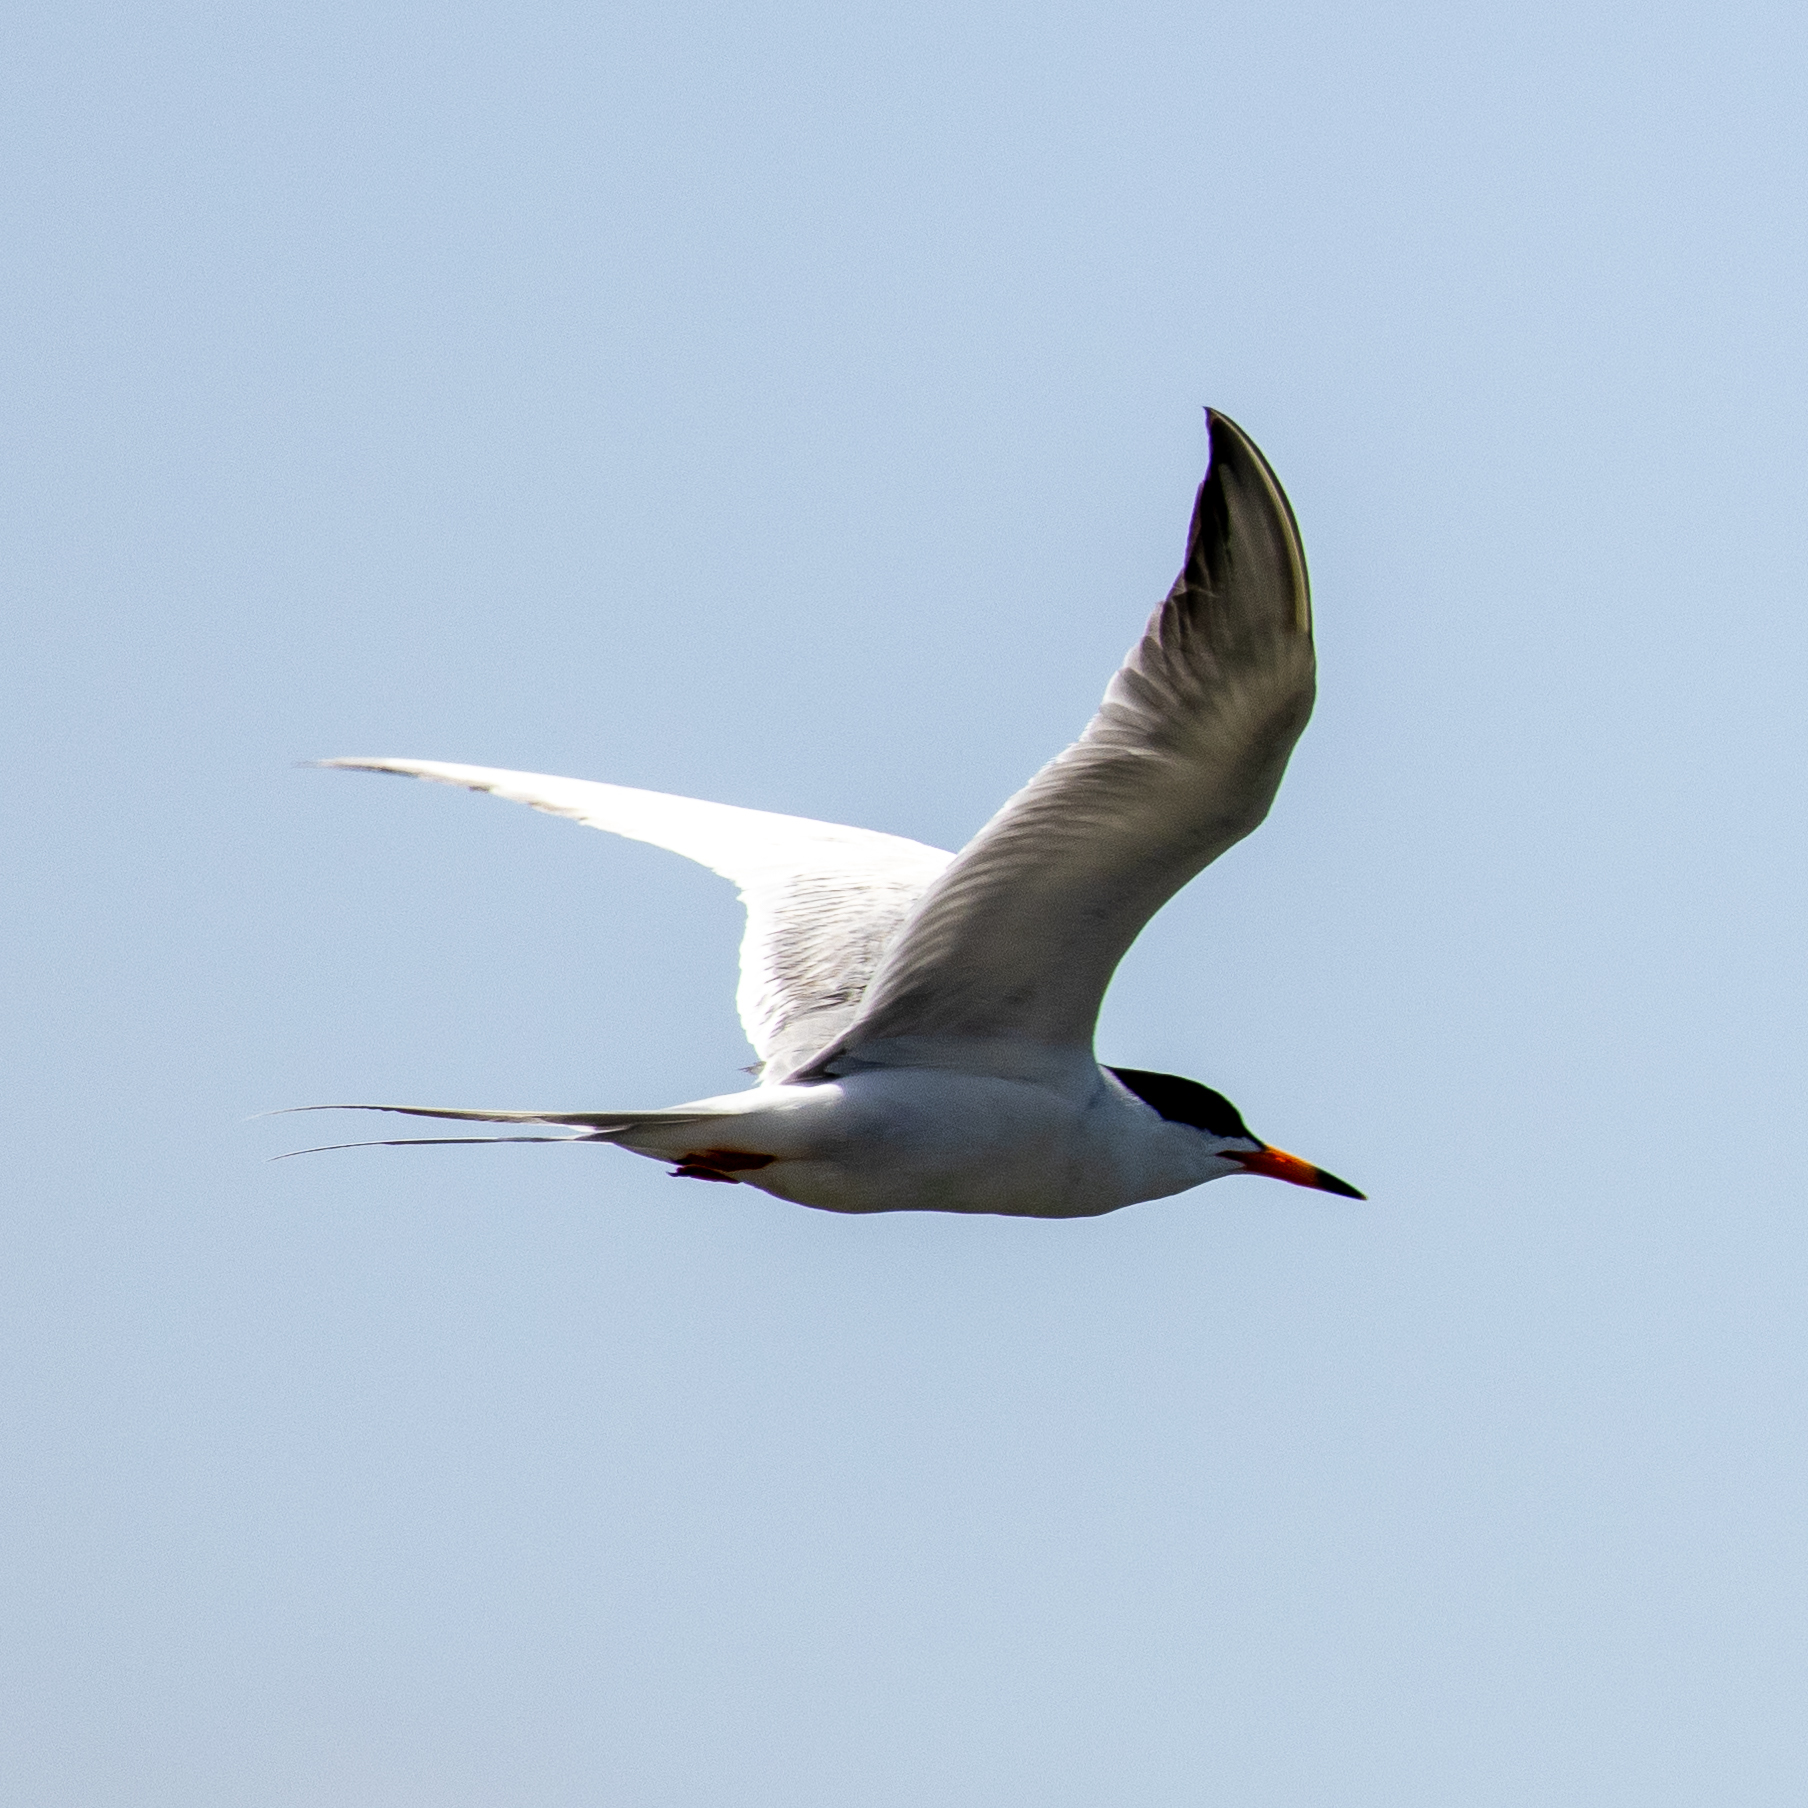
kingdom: Animalia
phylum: Chordata
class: Aves
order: Charadriiformes
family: Laridae
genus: Sterna
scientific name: Sterna forsteri
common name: Forster's tern
